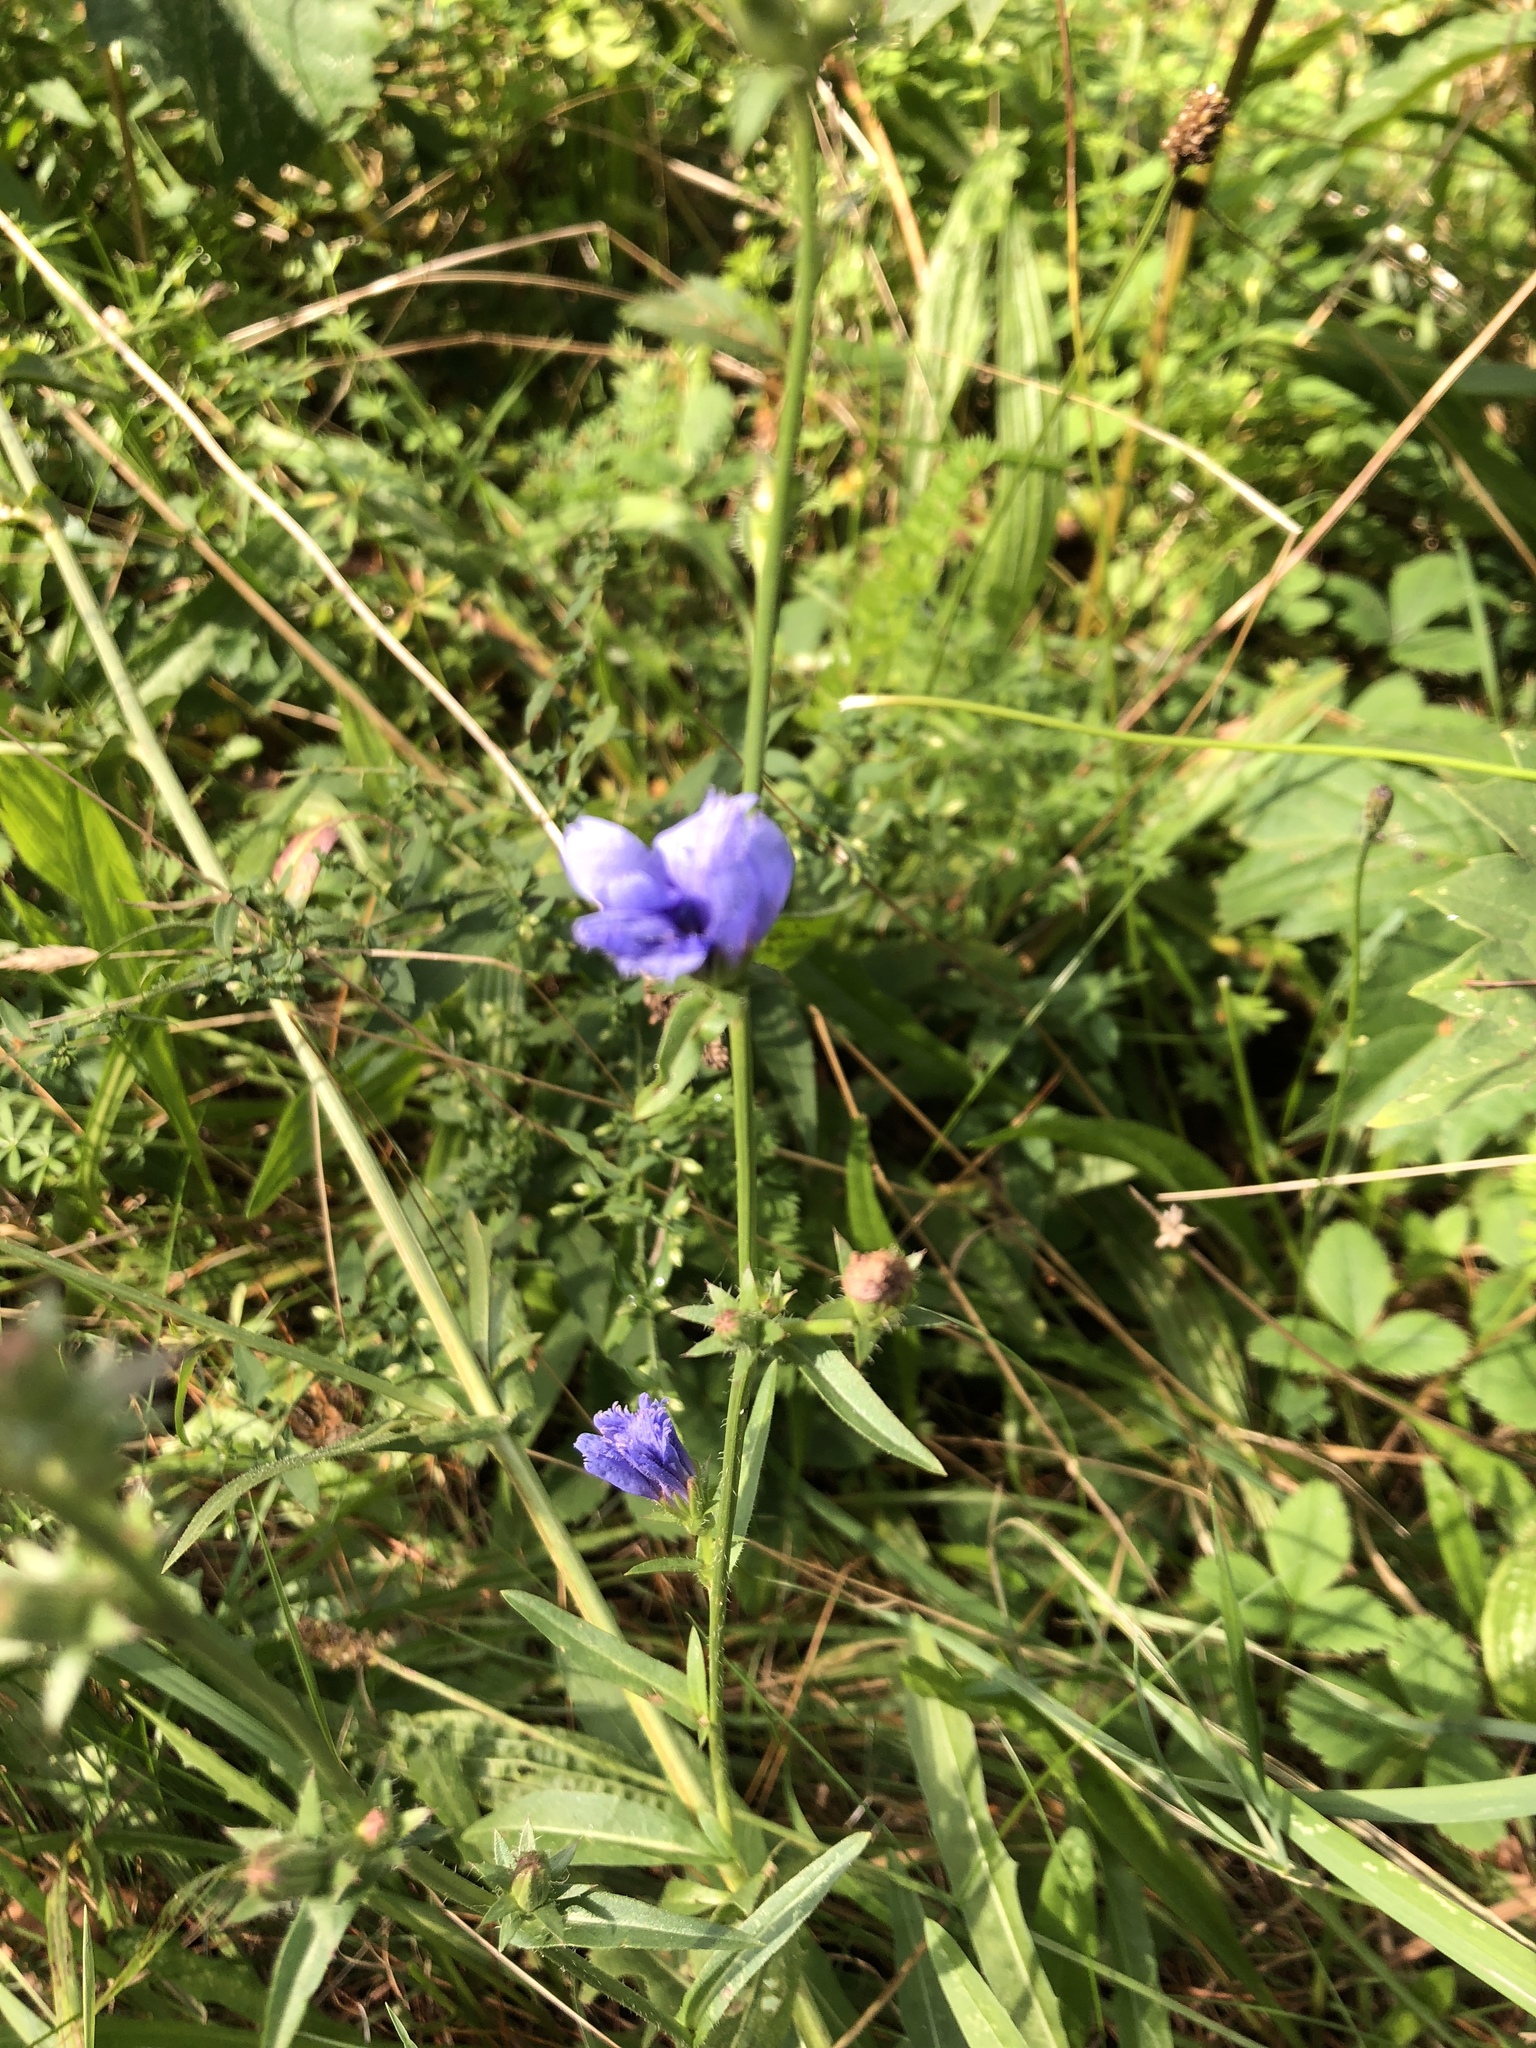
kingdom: Plantae
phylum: Tracheophyta
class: Magnoliopsida
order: Asterales
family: Asteraceae
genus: Cichorium
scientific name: Cichorium intybus
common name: Chicory
